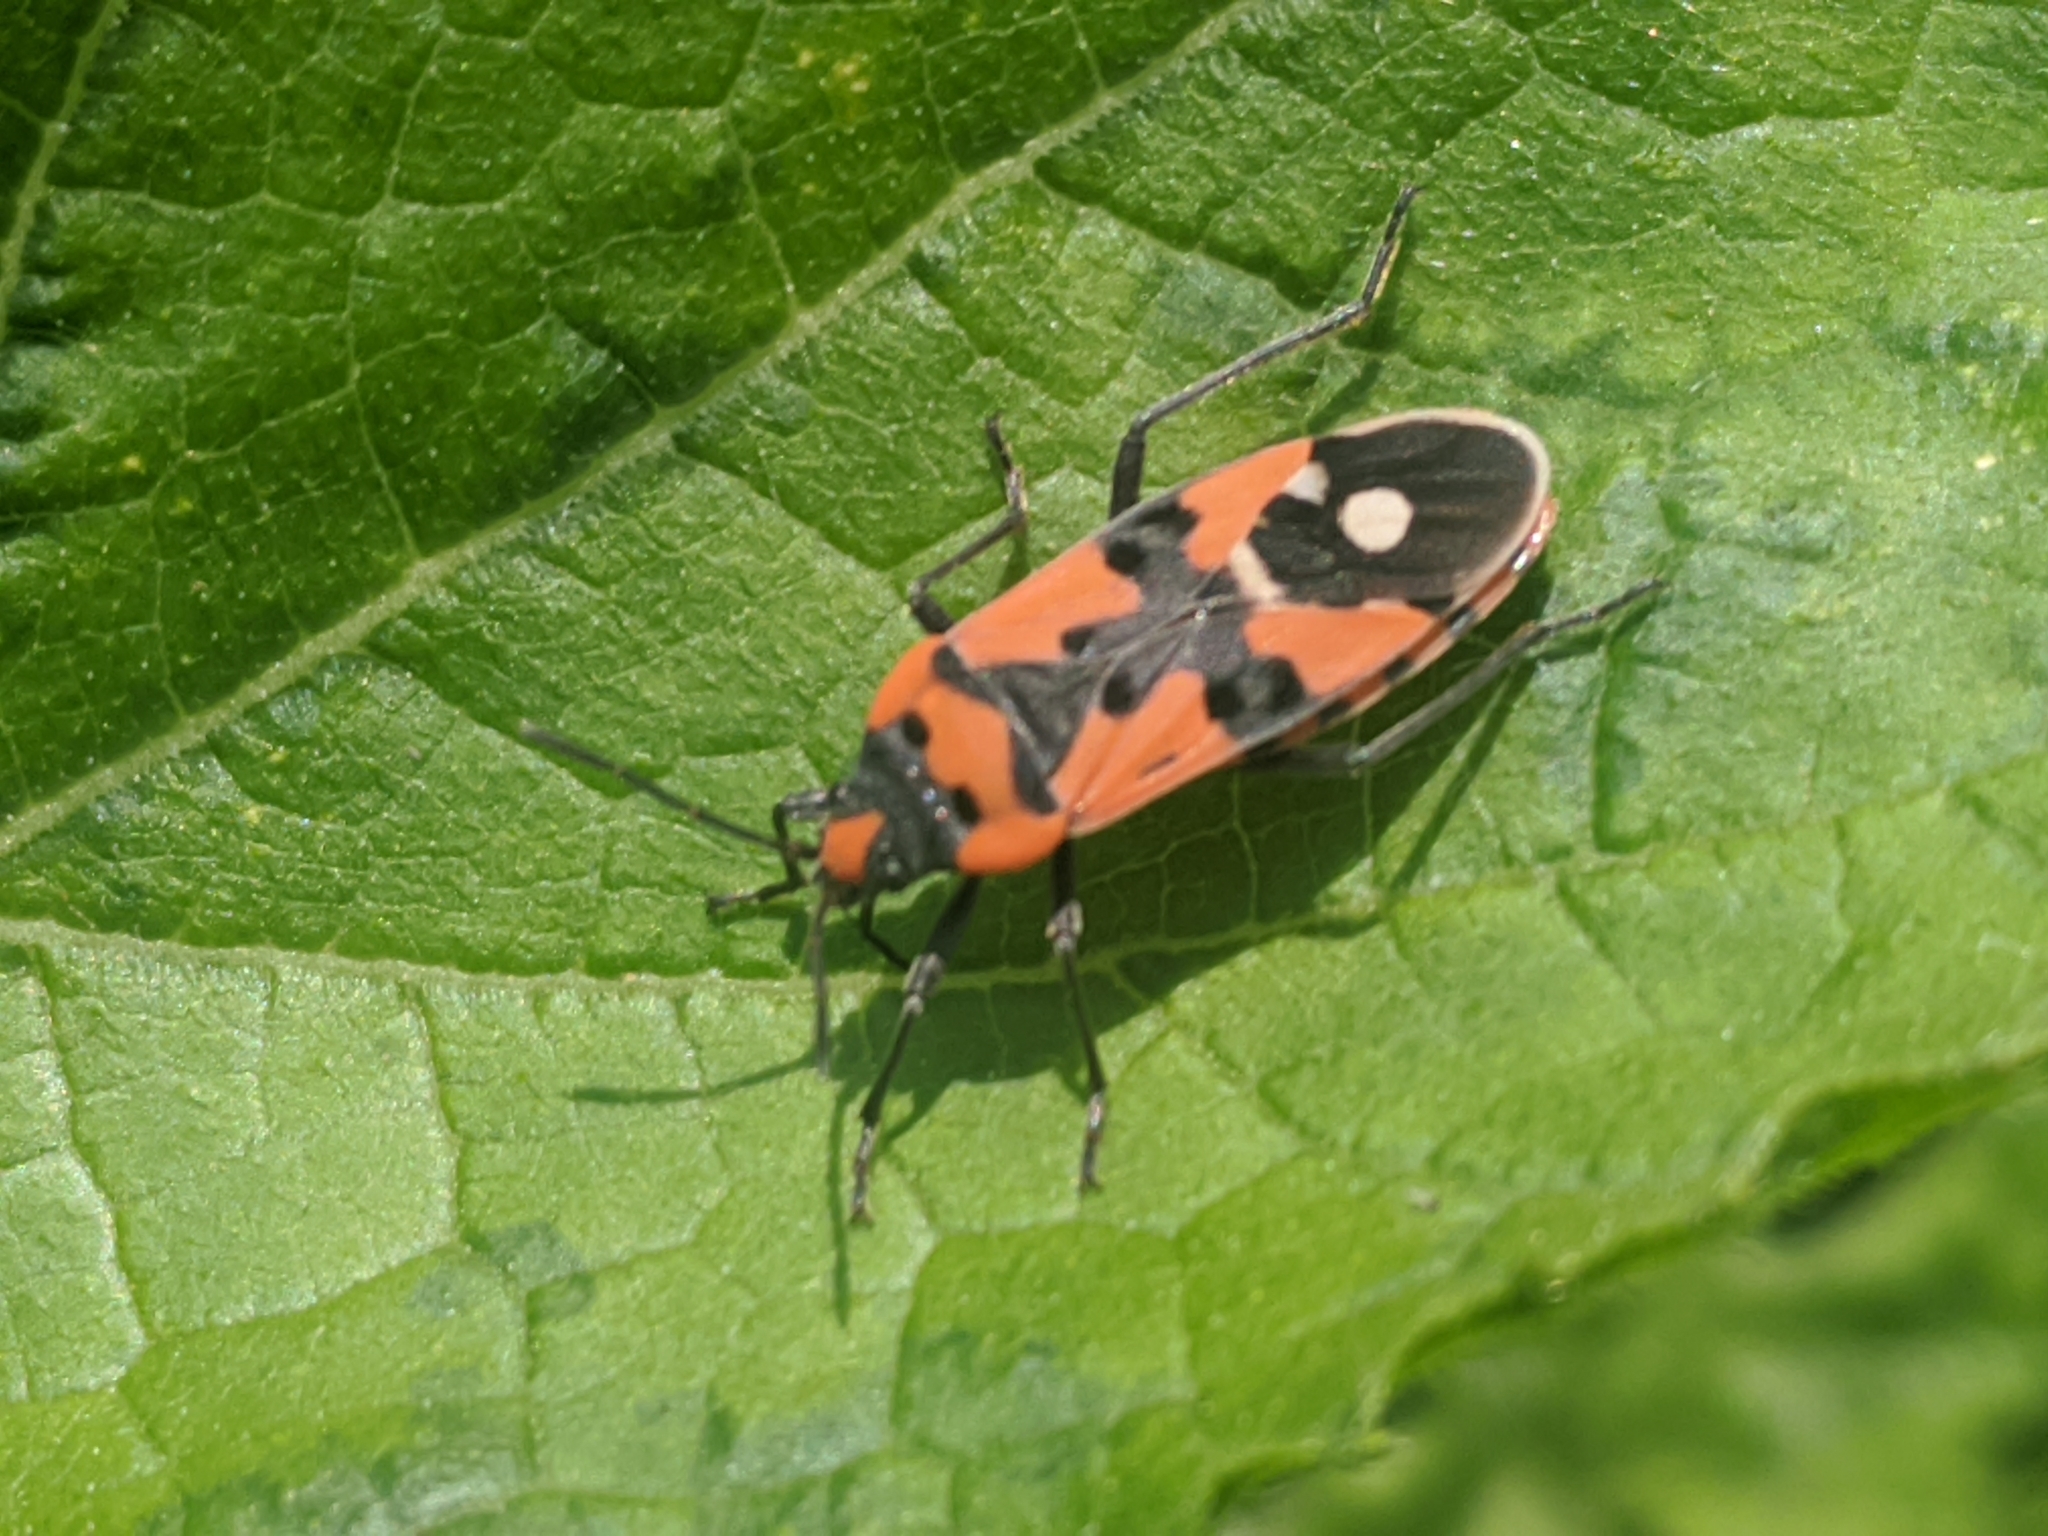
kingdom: Animalia
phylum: Arthropoda
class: Insecta
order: Hemiptera
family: Lygaeidae
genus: Lygaeus
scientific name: Lygaeus equestris
